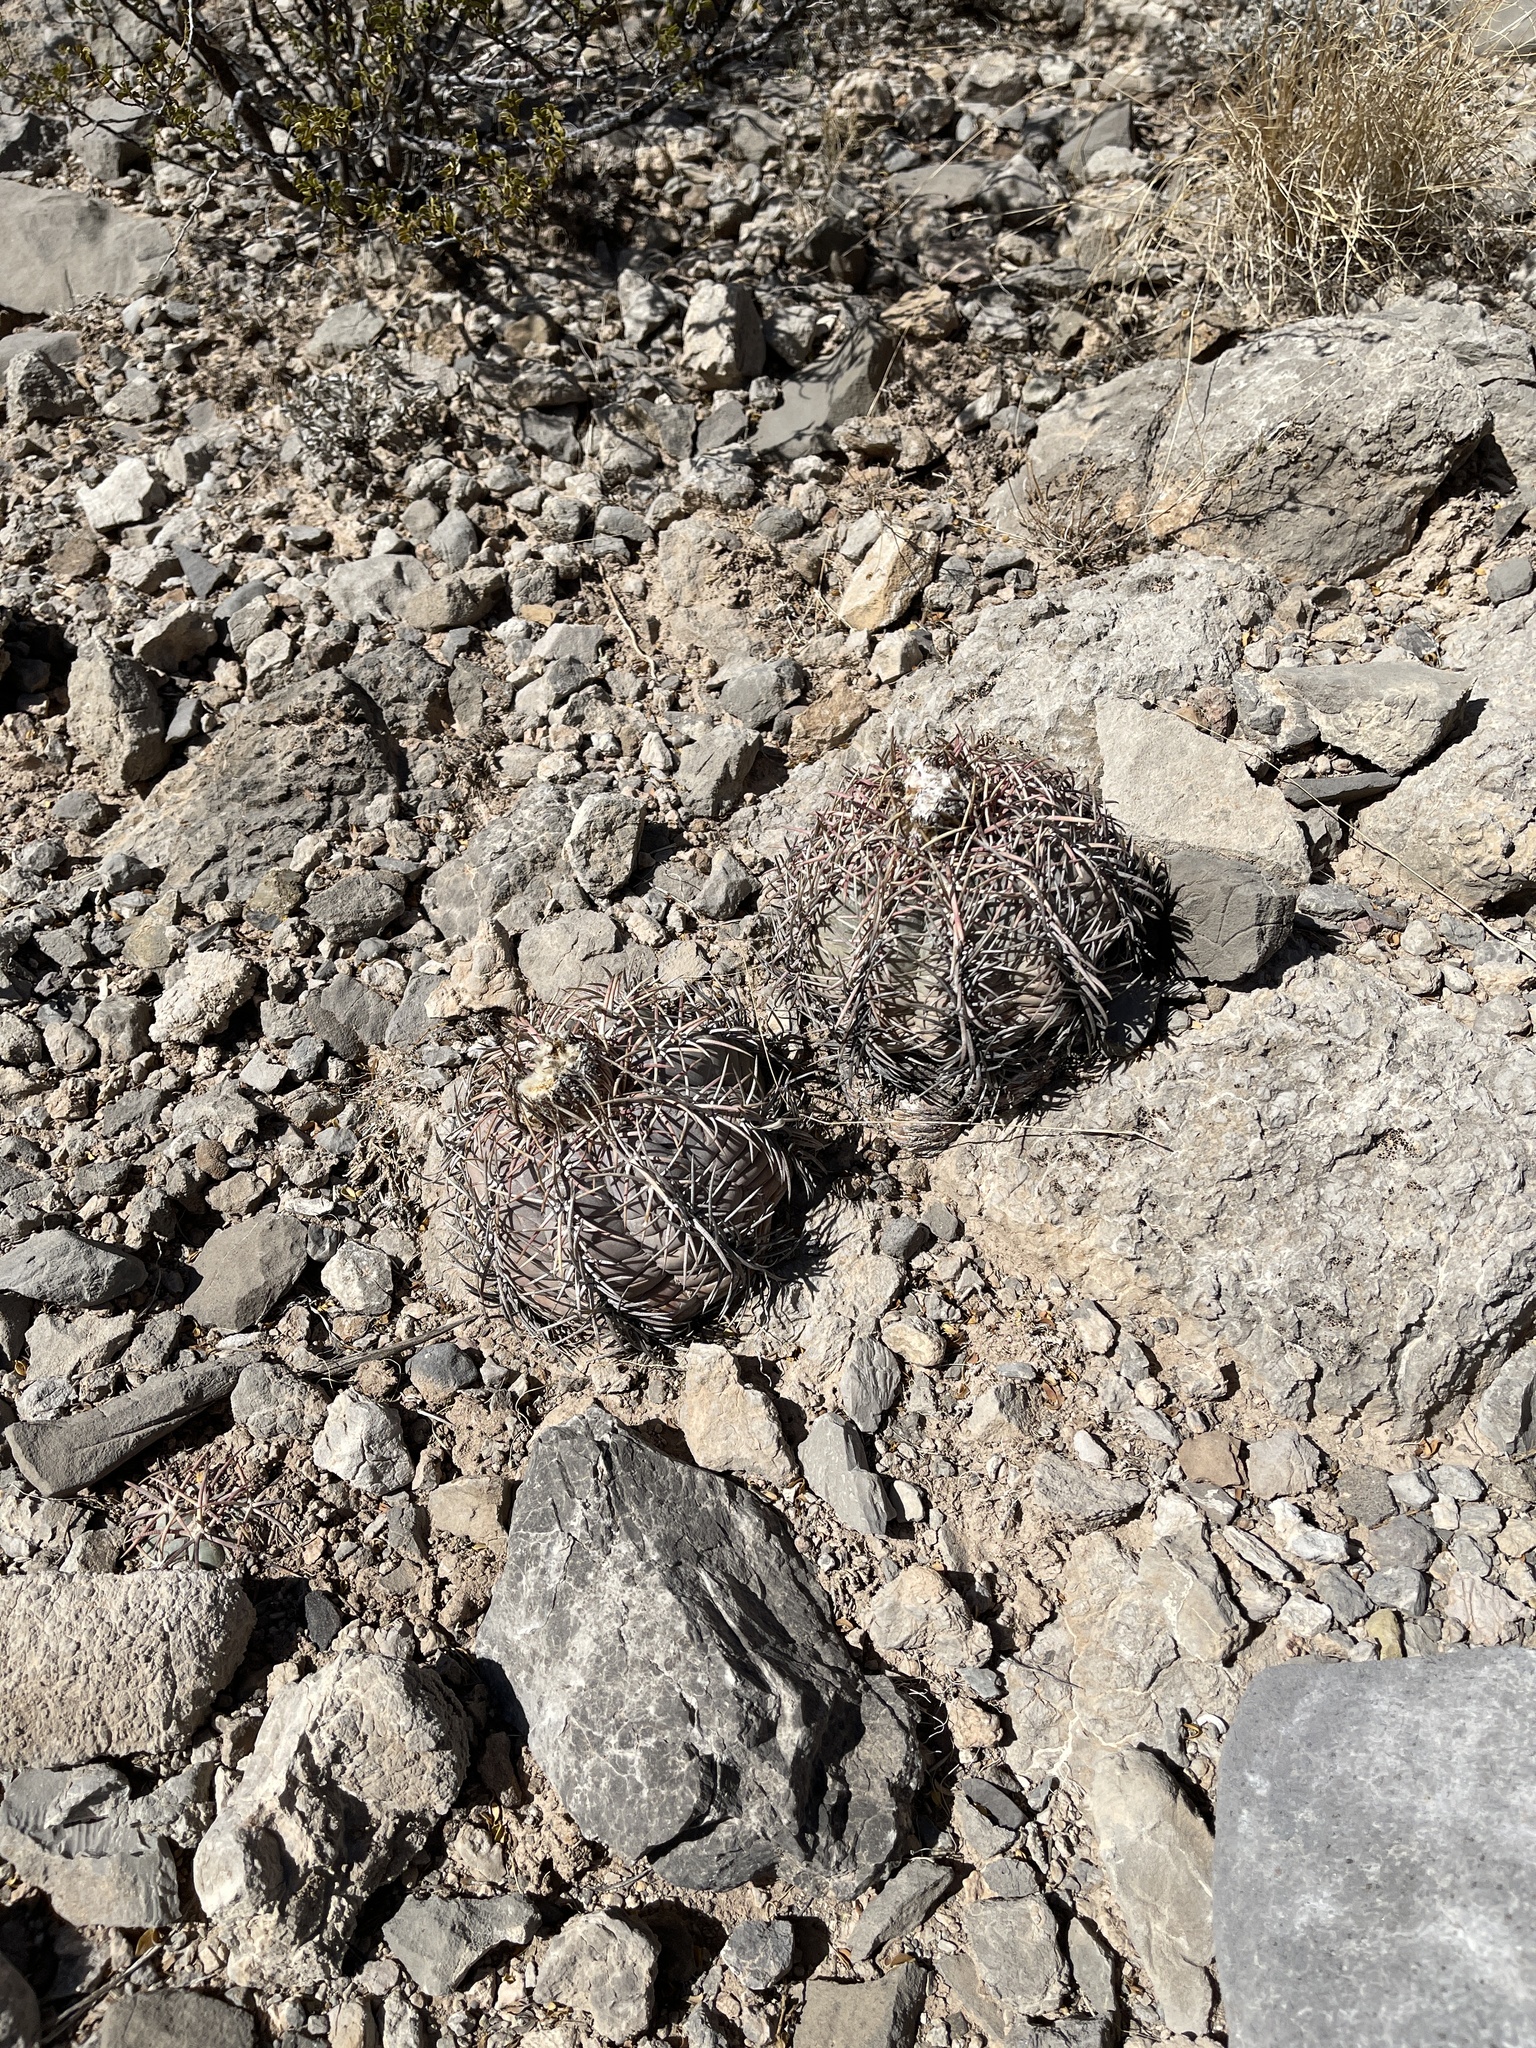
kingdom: Plantae
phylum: Tracheophyta
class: Magnoliopsida
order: Caryophyllales
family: Cactaceae
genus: Echinocactus
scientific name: Echinocactus horizonthalonius
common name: Devilshead
